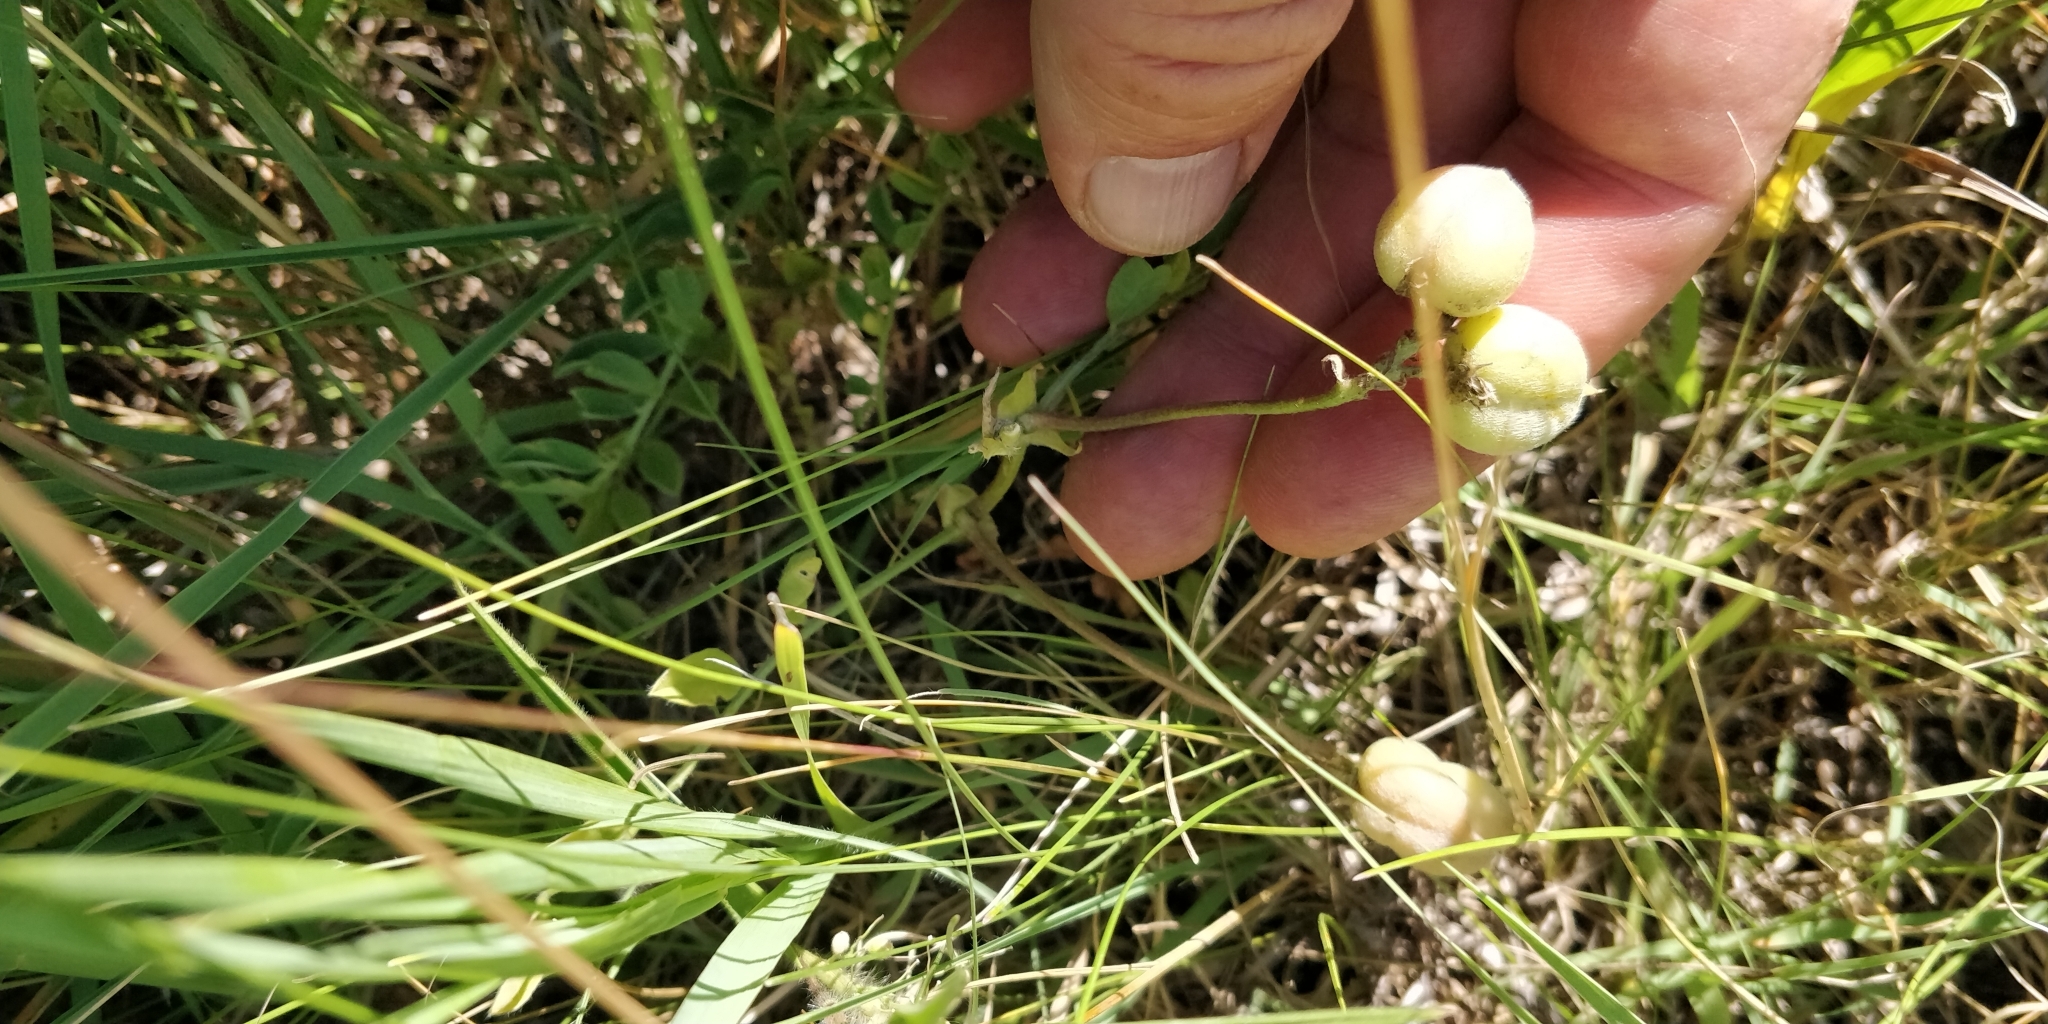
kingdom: Plantae
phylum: Tracheophyta
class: Magnoliopsida
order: Fabales
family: Fabaceae
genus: Astragalus
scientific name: Astragalus plattensis
